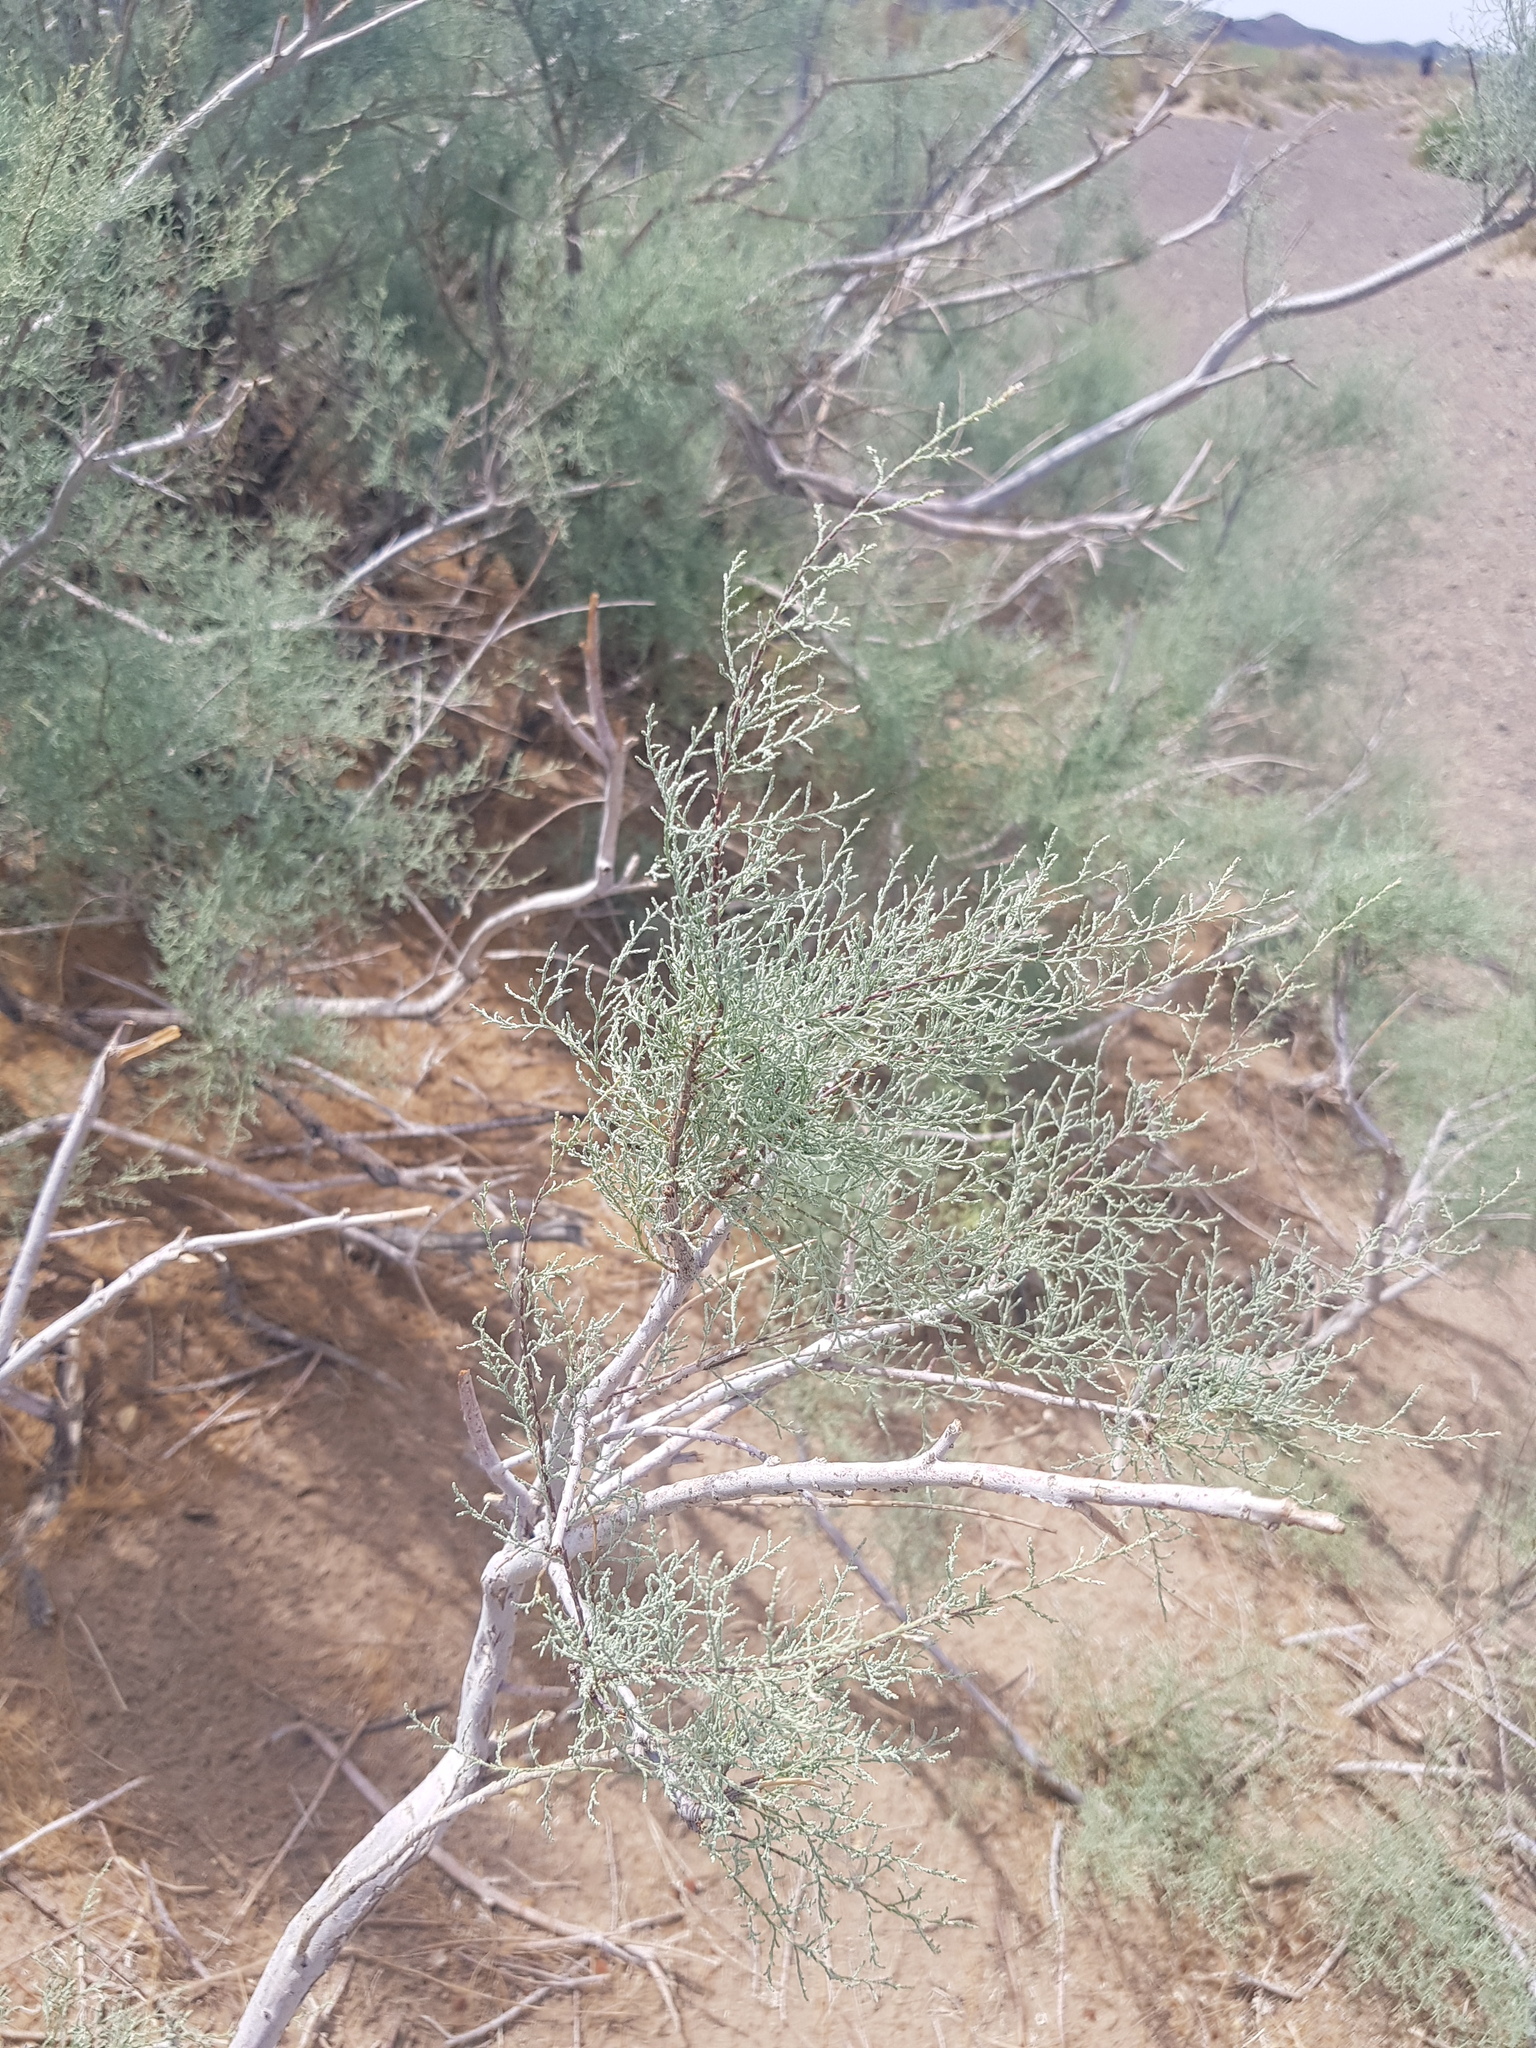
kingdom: Plantae
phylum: Tracheophyta
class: Magnoliopsida
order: Caryophyllales
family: Tamaricaceae
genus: Tamarix
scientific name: Tamarix ramosissima
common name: Pink tamarisk
